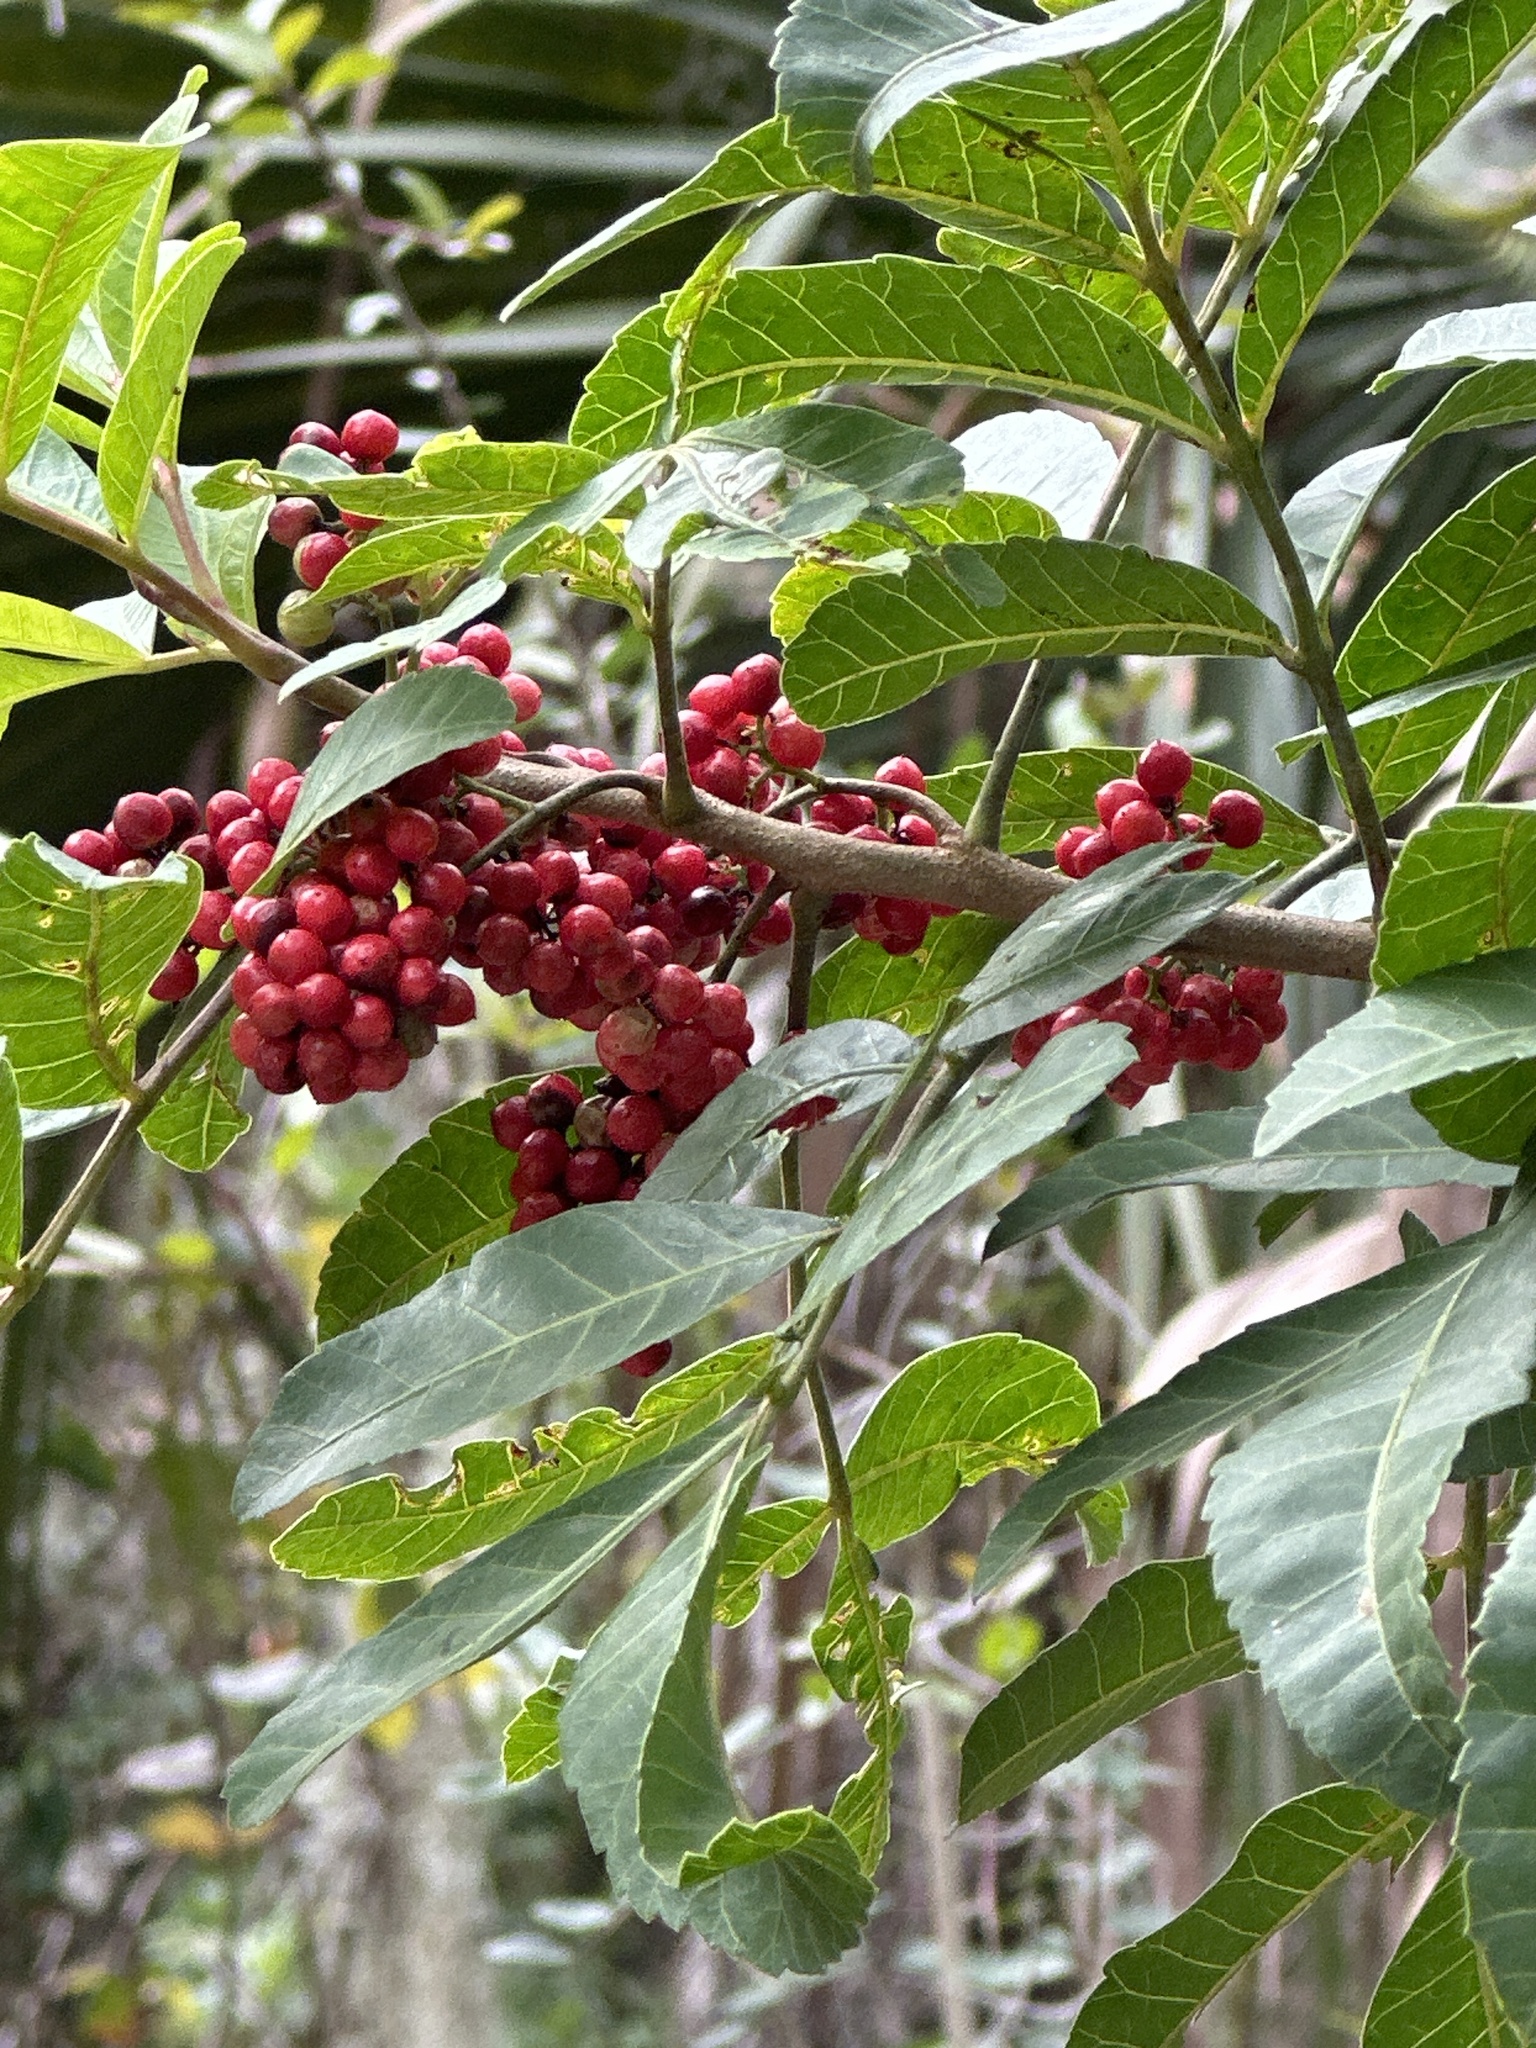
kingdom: Plantae
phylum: Tracheophyta
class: Magnoliopsida
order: Sapindales
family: Anacardiaceae
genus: Schinus
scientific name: Schinus terebinthifolia
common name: Brazilian peppertree
